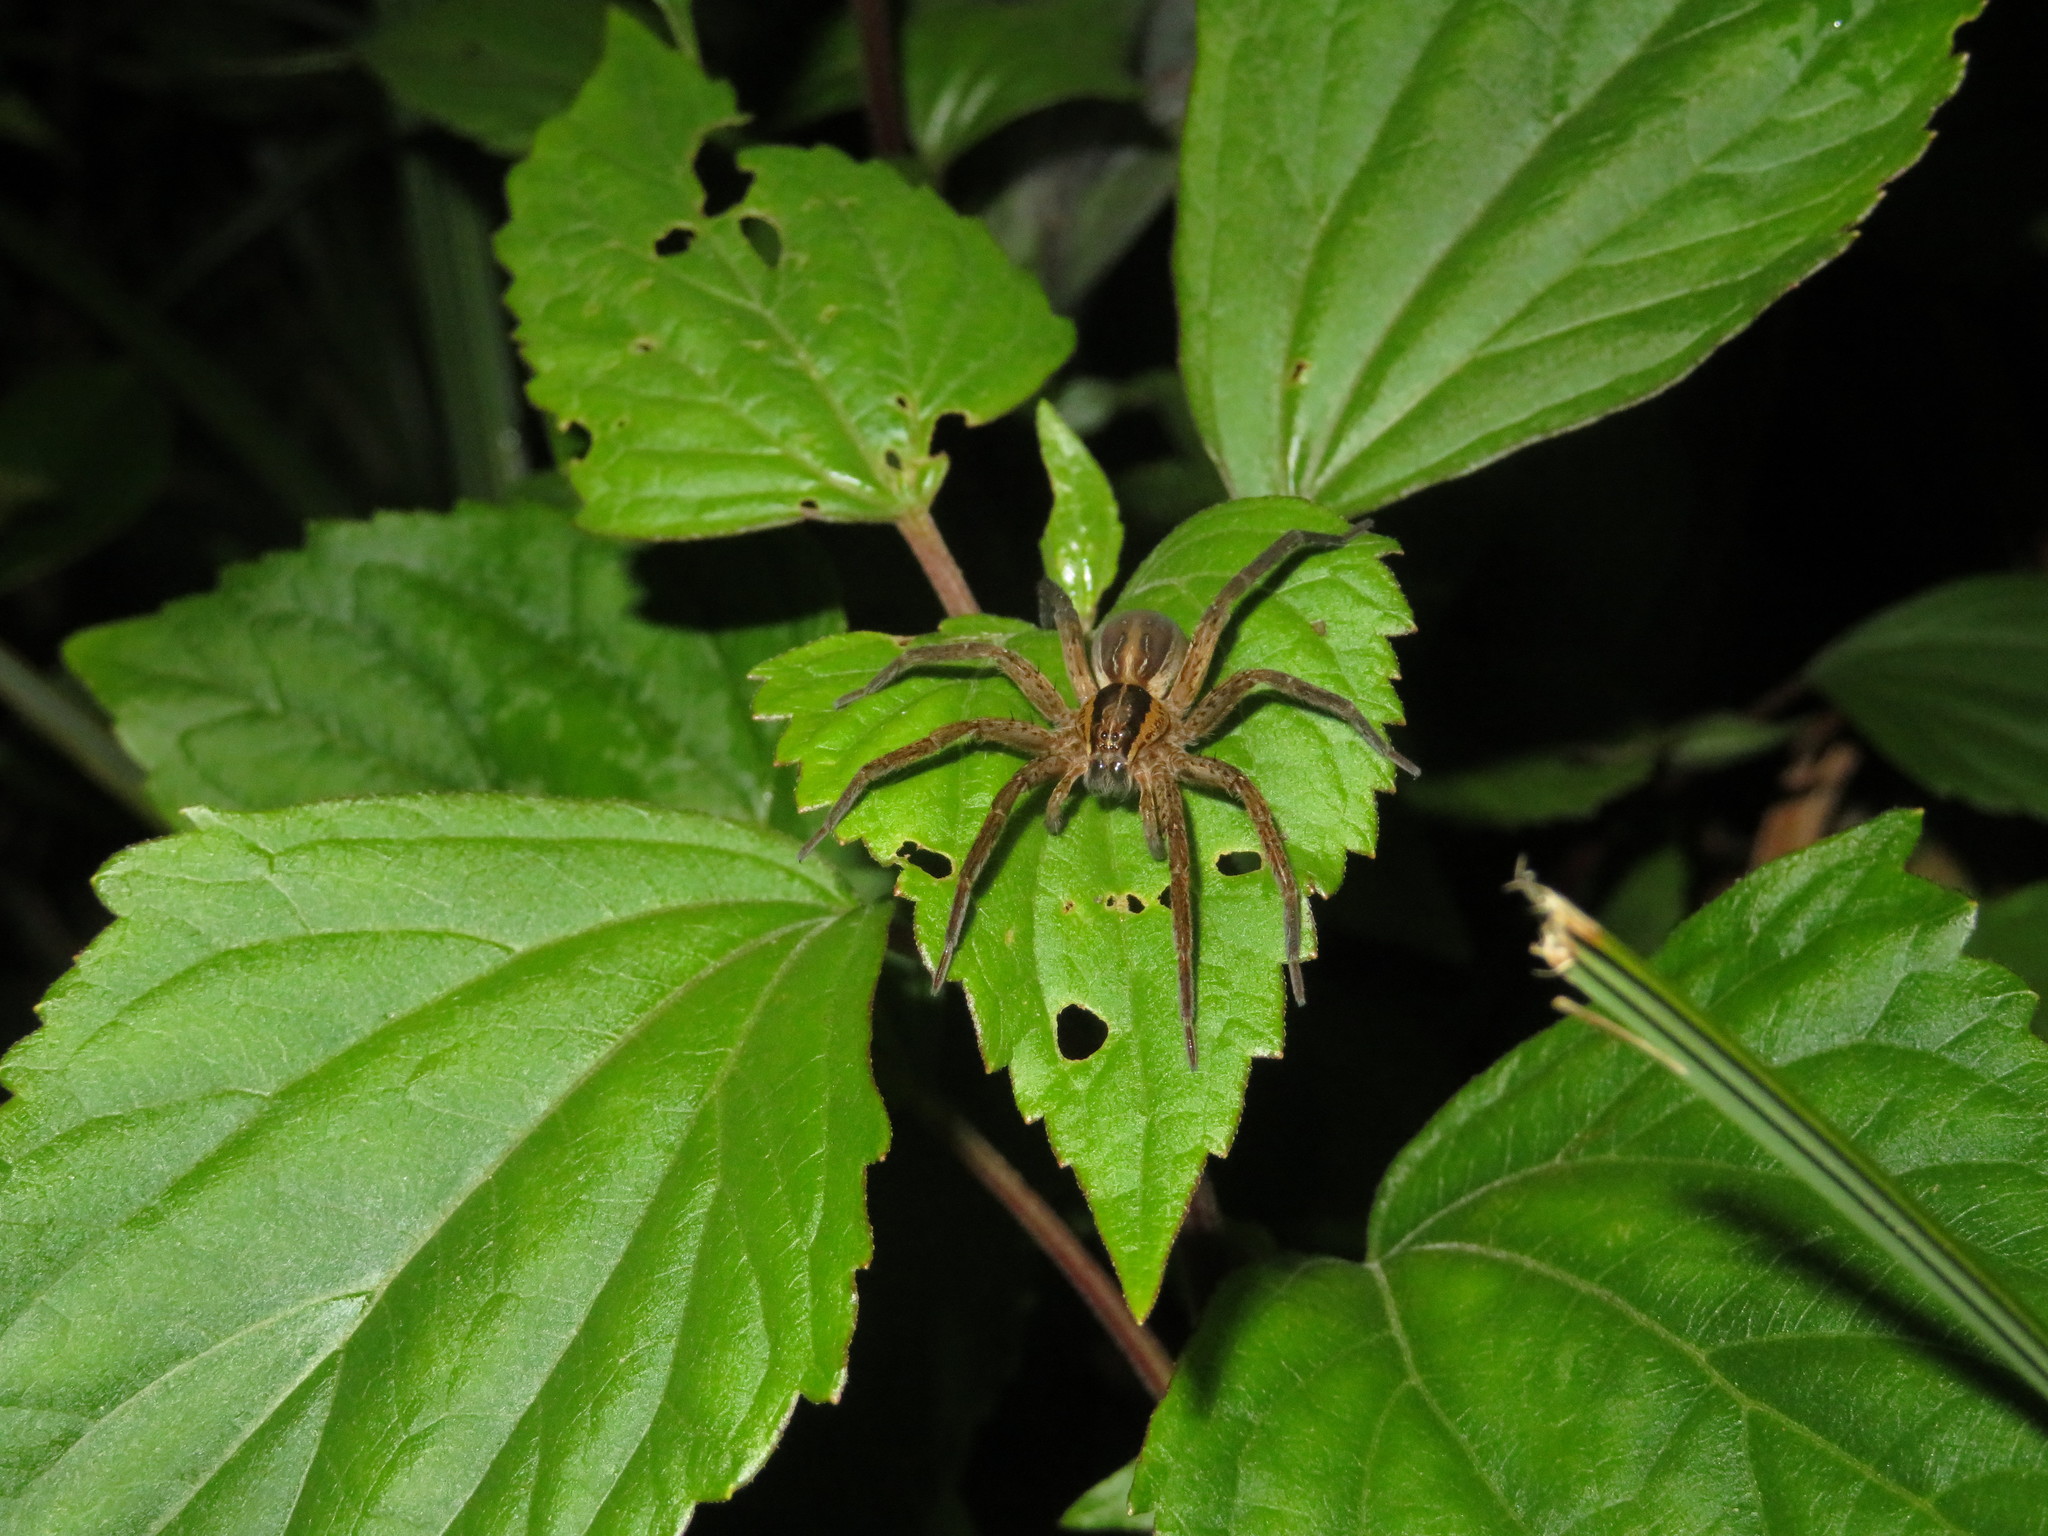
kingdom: Animalia
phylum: Arthropoda
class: Arachnida
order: Araneae
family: Pisauridae
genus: Dolomedes
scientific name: Dolomedes minor
